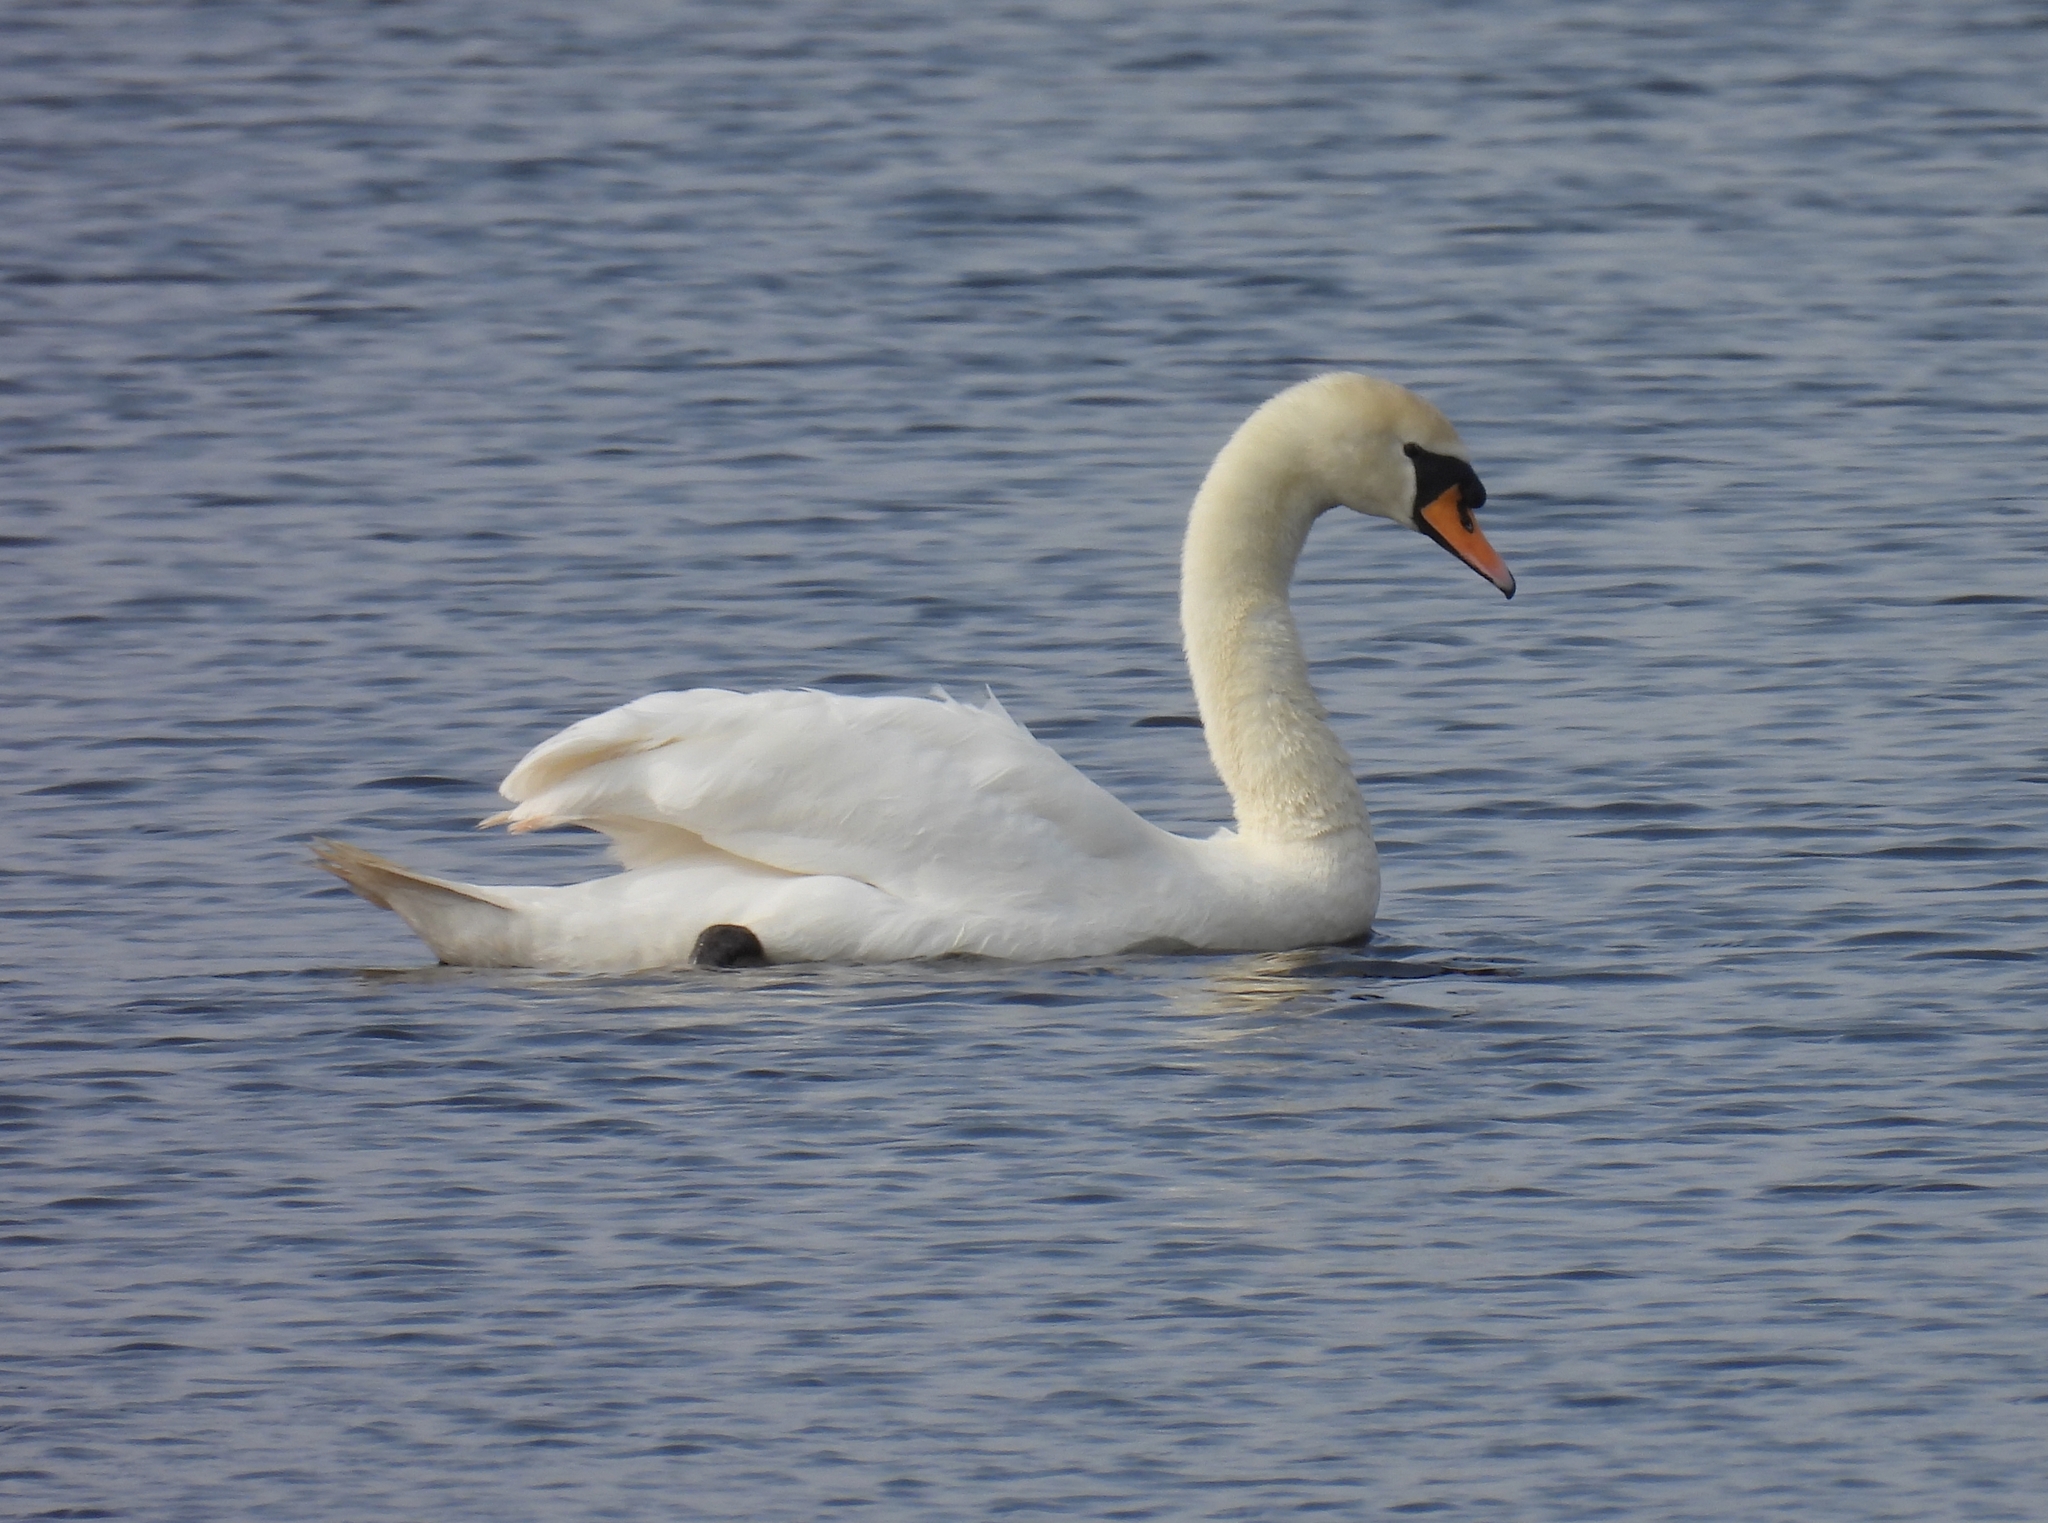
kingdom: Animalia
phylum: Chordata
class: Aves
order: Anseriformes
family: Anatidae
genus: Cygnus
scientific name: Cygnus olor
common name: Mute swan
